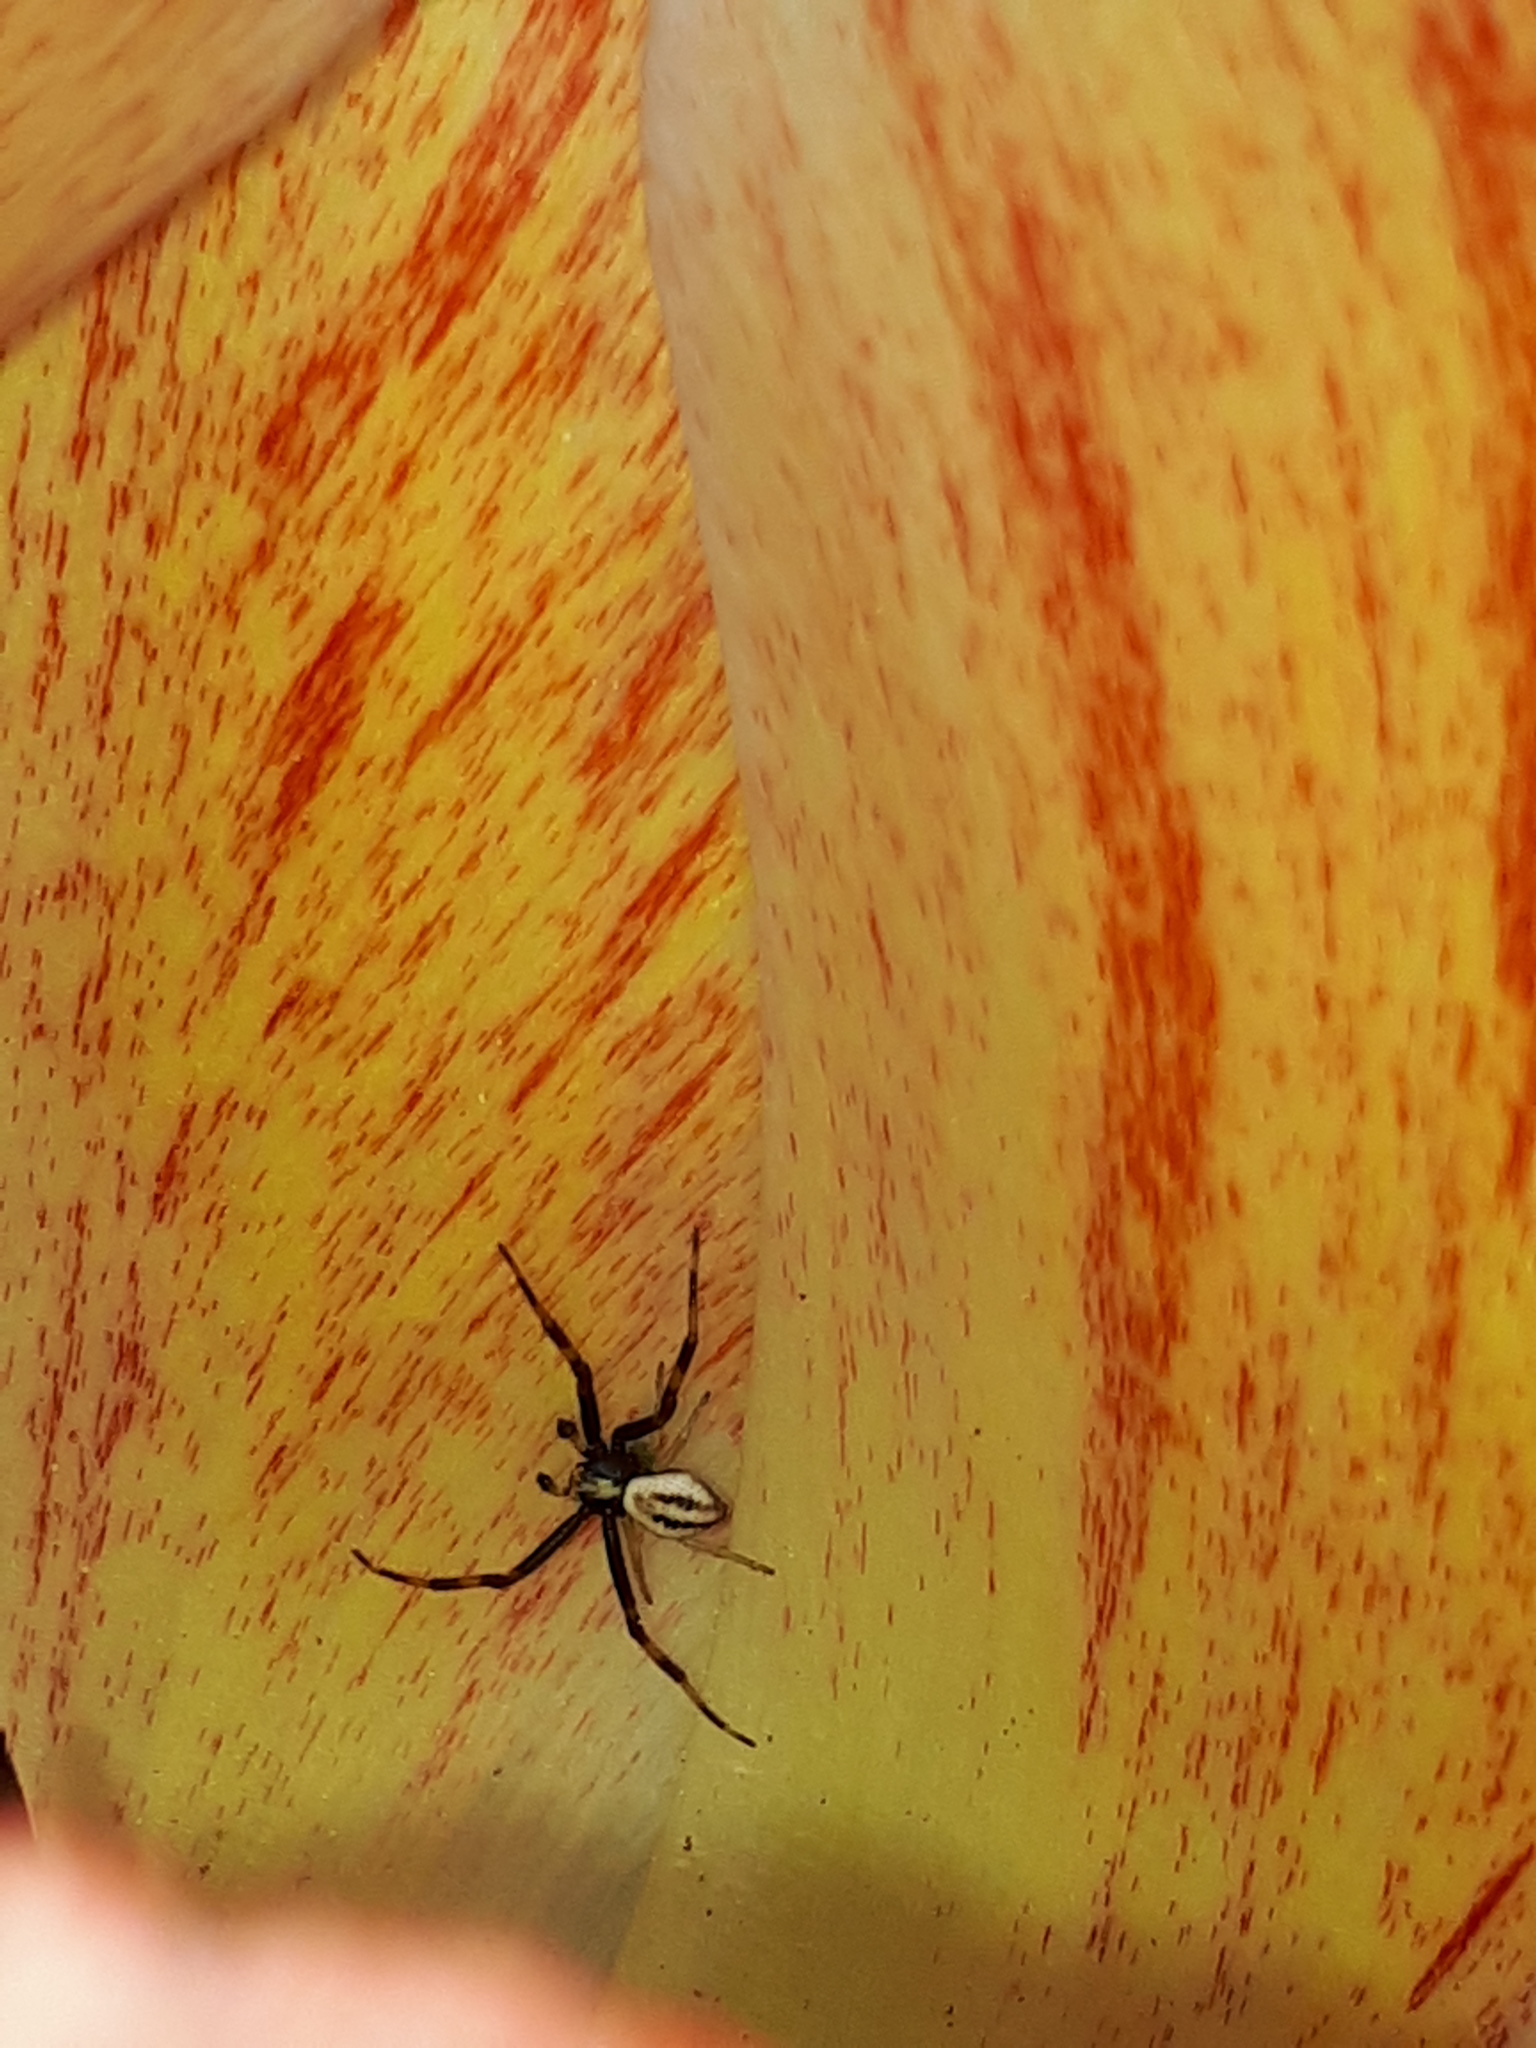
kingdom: Animalia
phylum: Arthropoda
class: Arachnida
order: Araneae
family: Thomisidae
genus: Misumena
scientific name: Misumena vatia
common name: Goldenrod crab spider
